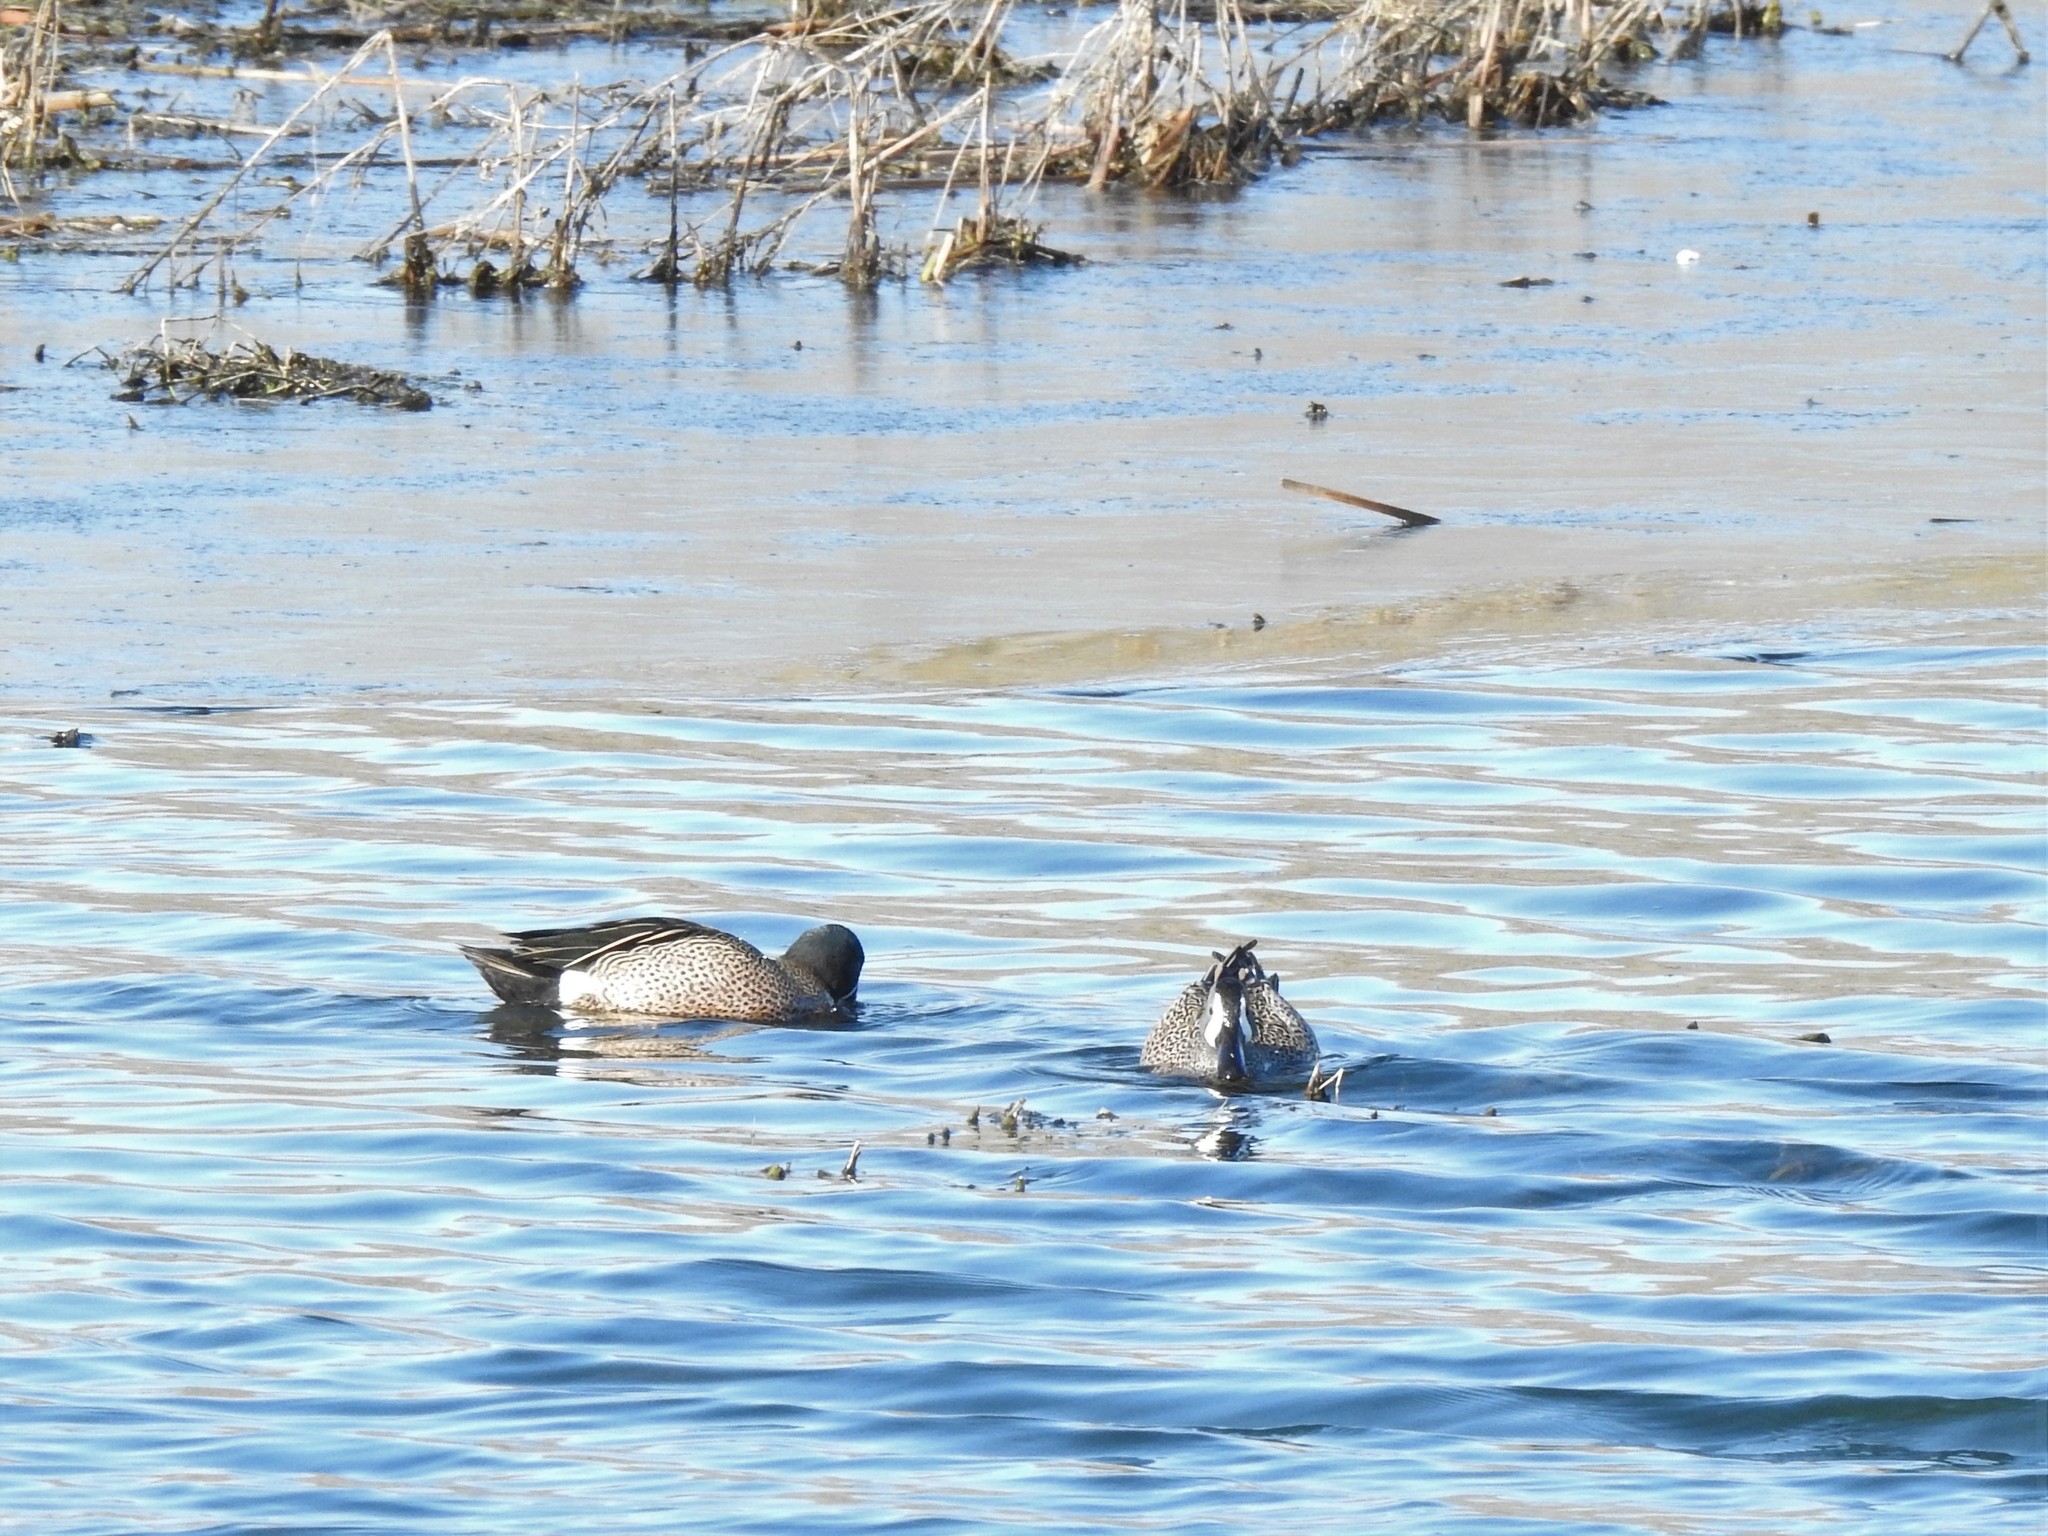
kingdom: Animalia
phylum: Chordata
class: Aves
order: Anseriformes
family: Anatidae
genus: Spatula
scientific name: Spatula discors
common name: Blue-winged teal
